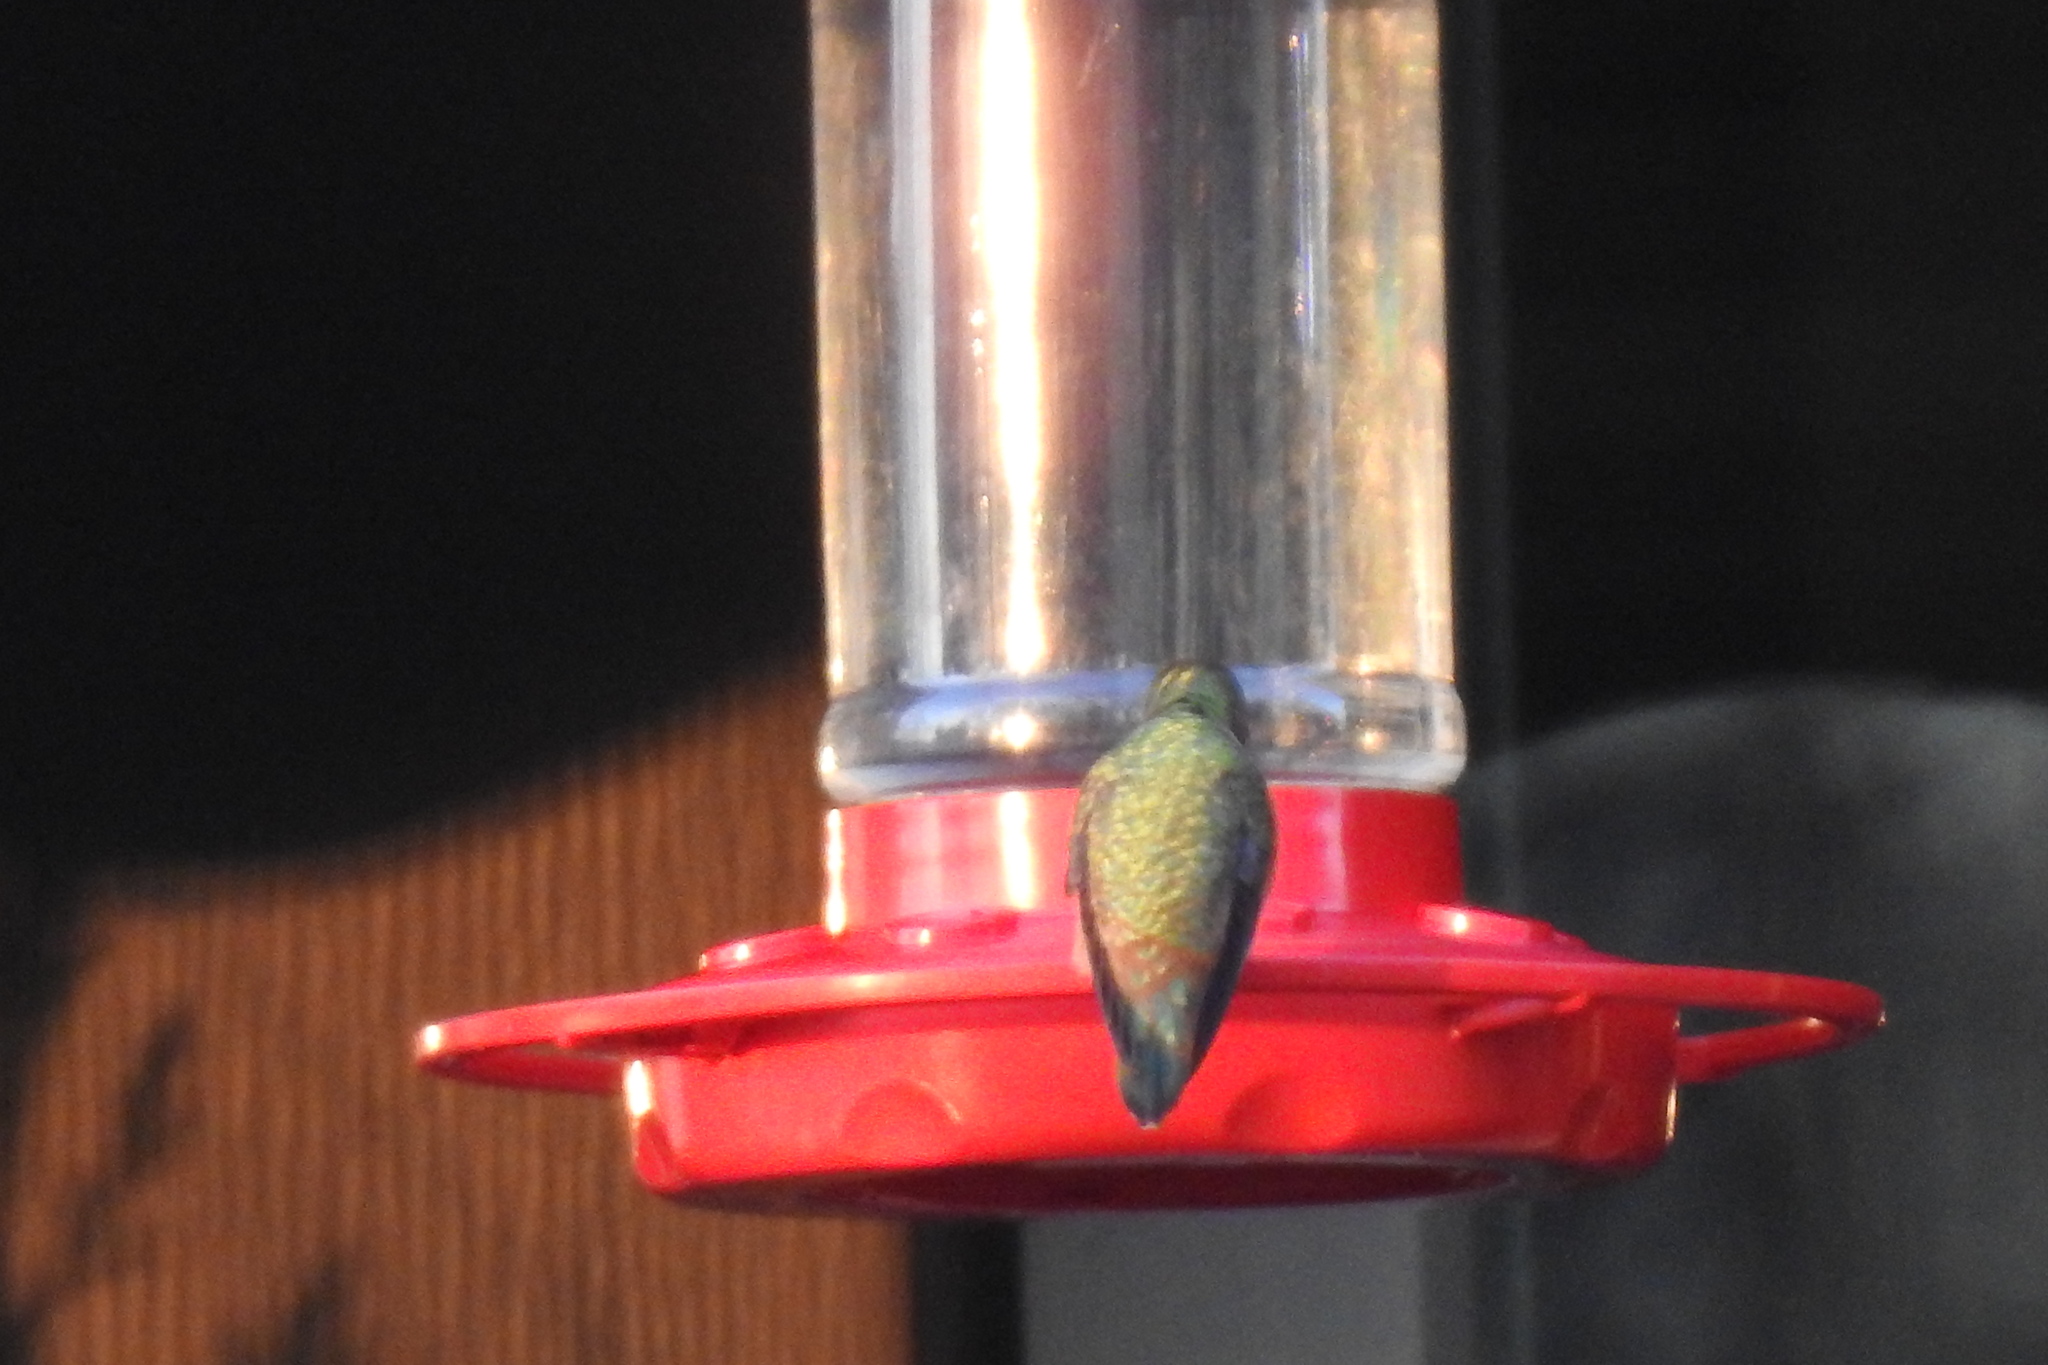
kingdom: Animalia
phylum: Chordata
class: Aves
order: Apodiformes
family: Trochilidae
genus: Selasphorus
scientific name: Selasphorus rufus
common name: Rufous hummingbird
